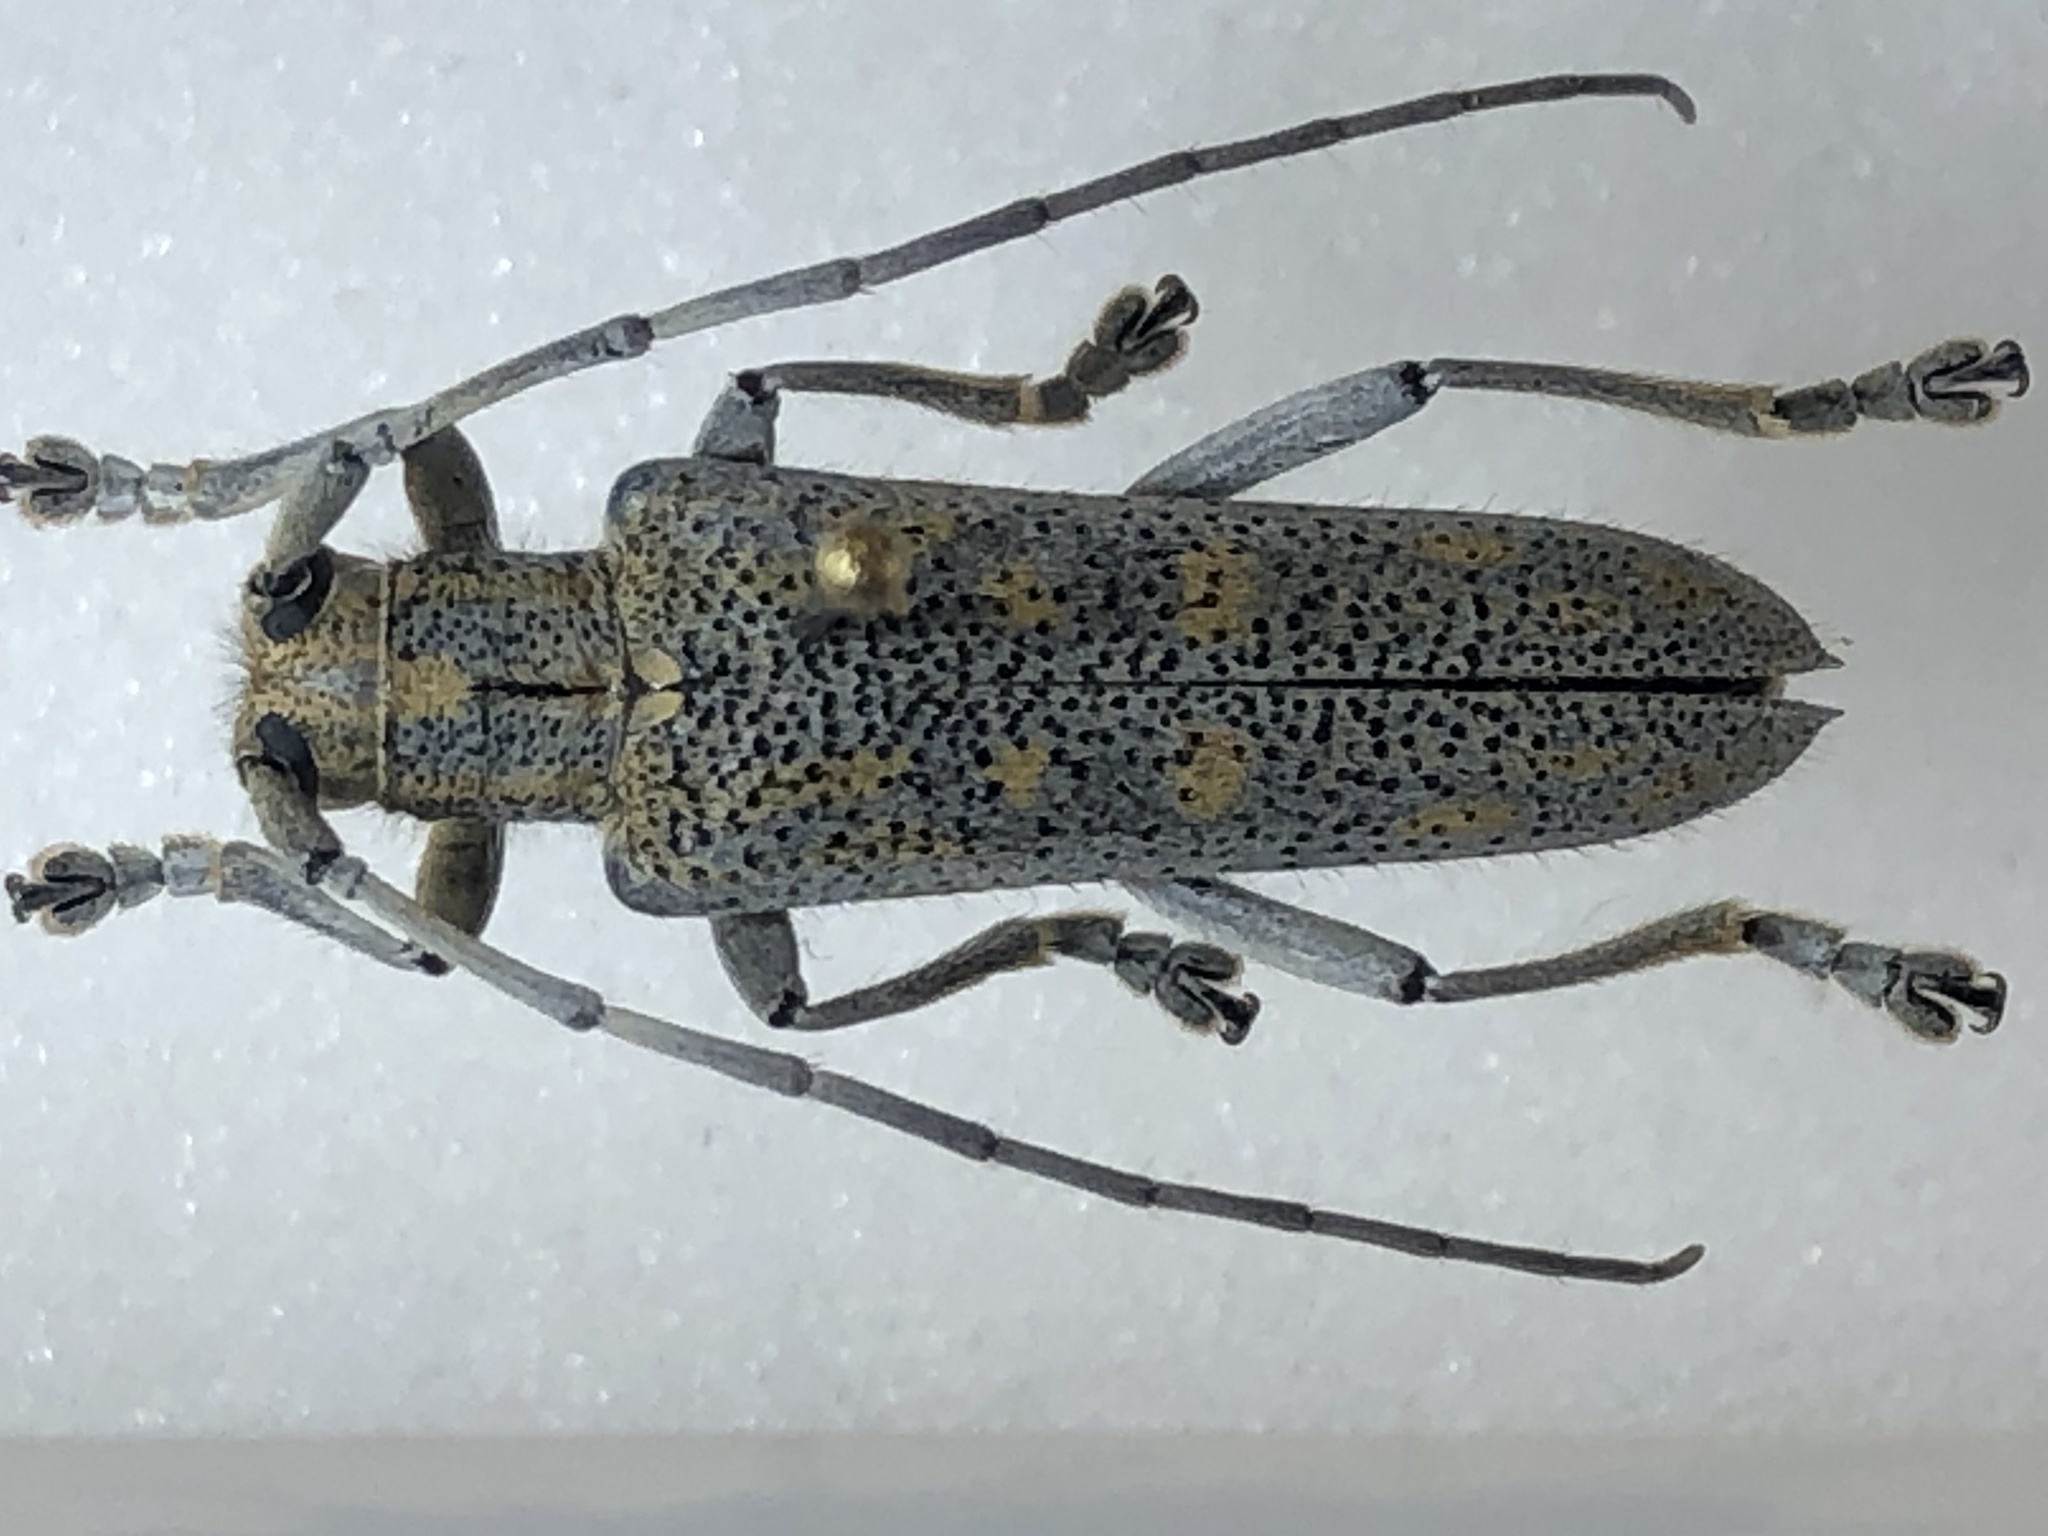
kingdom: Animalia
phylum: Arthropoda
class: Insecta
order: Coleoptera
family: Cerambycidae
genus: Saperda
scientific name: Saperda calcarata
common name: Poplar borer
